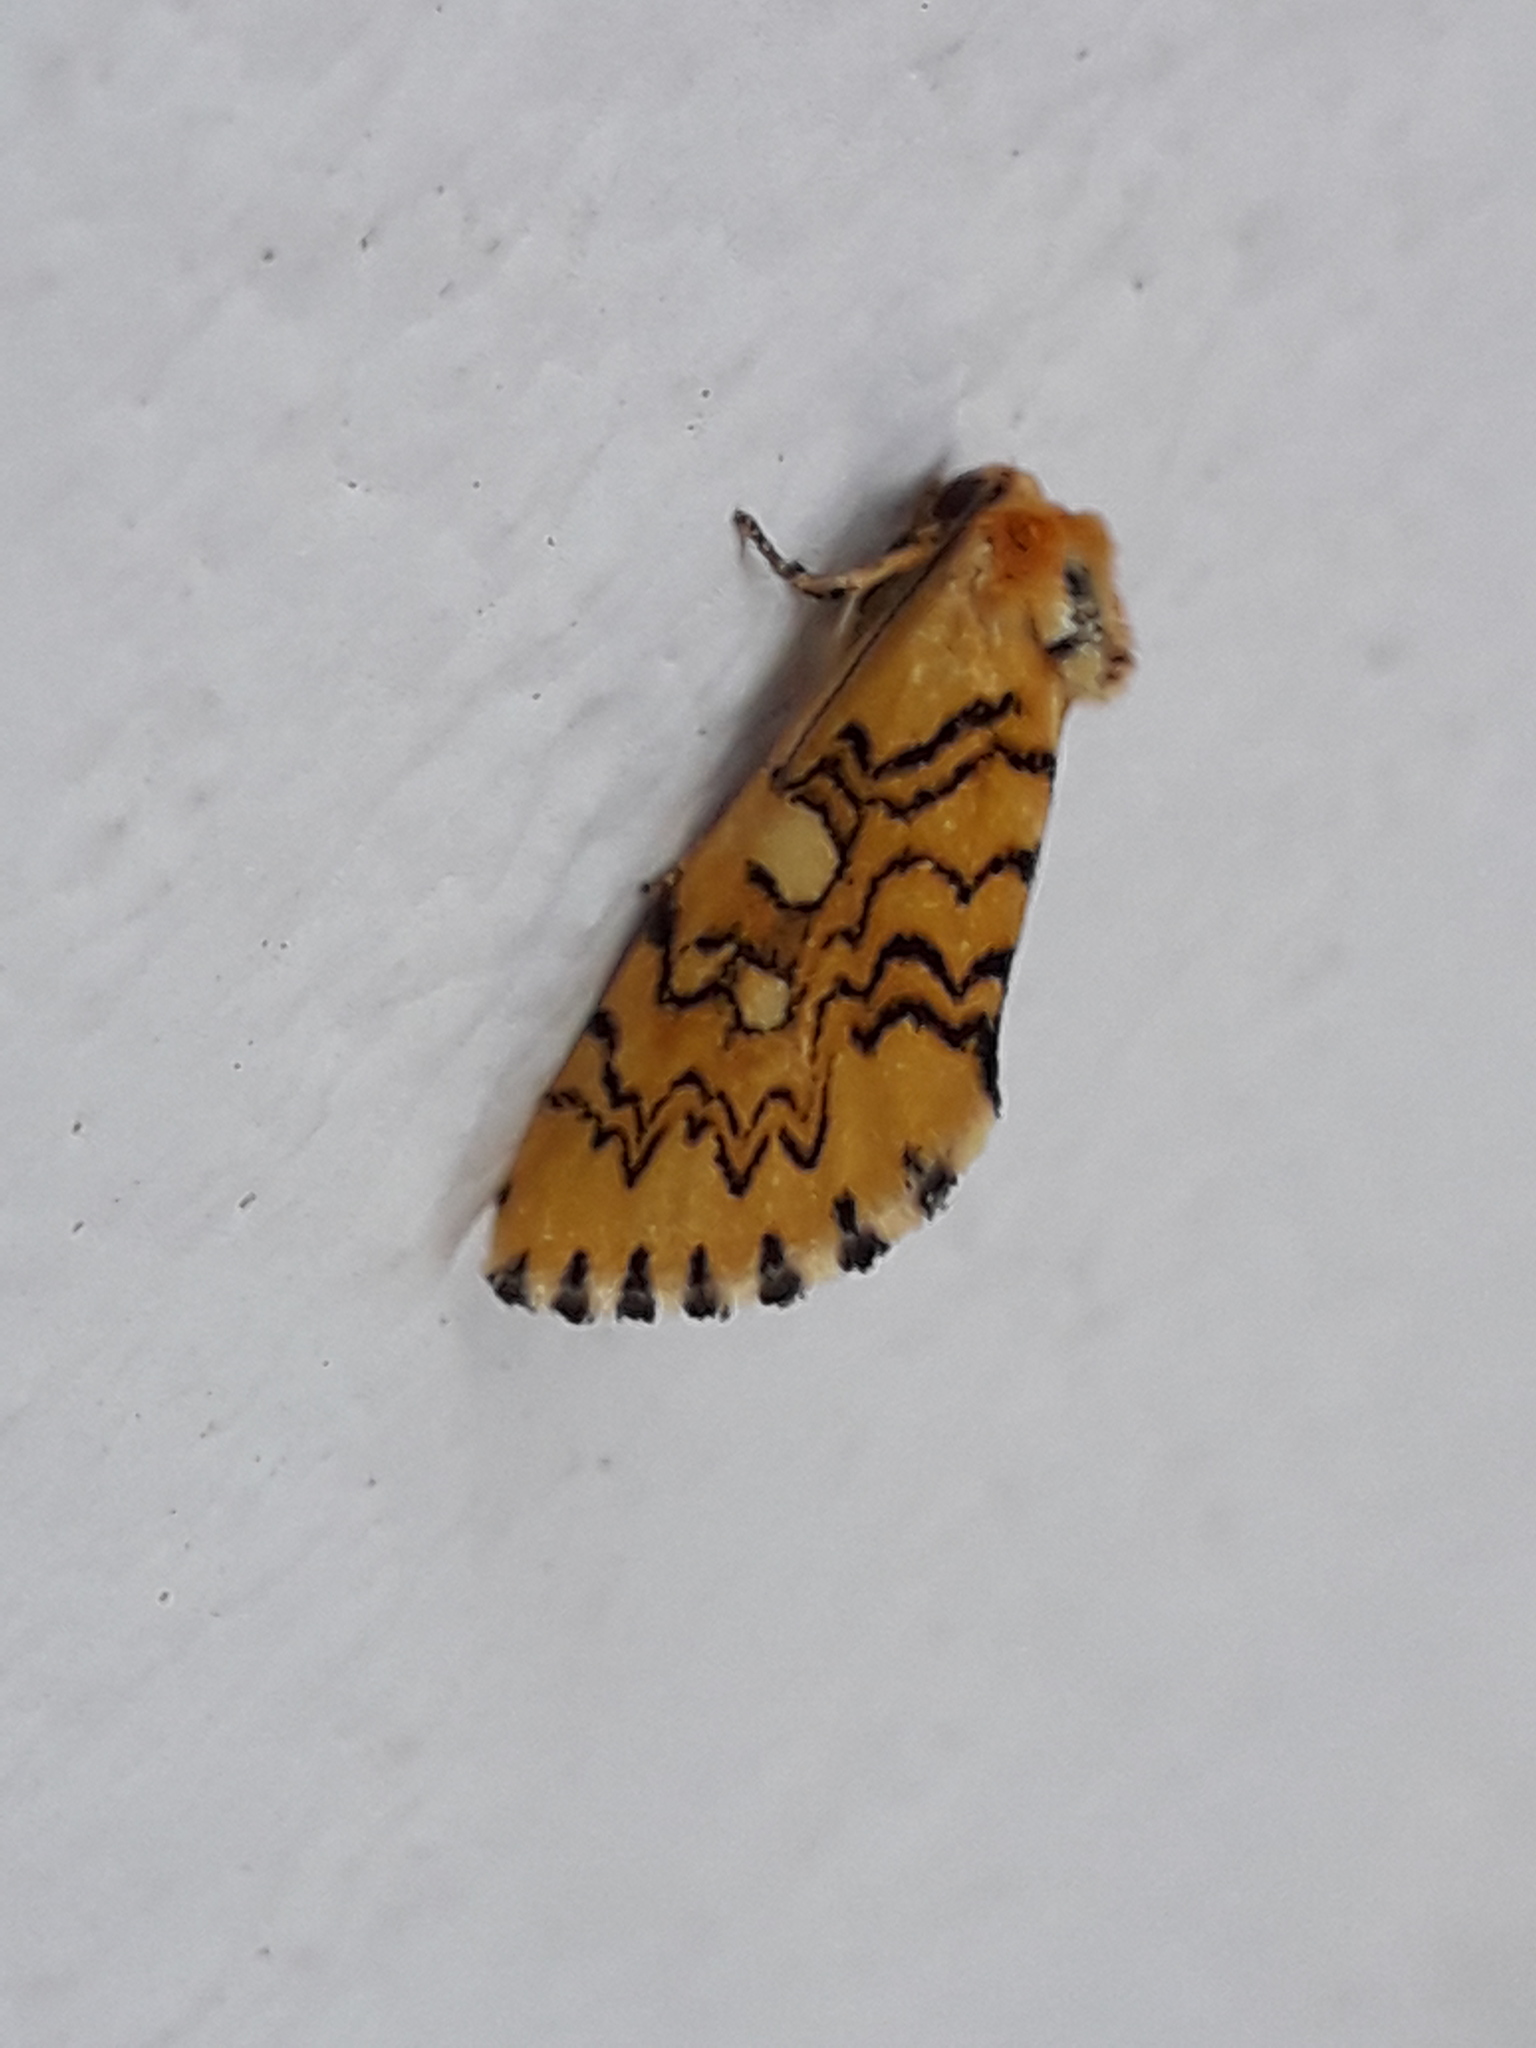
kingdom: Animalia
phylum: Arthropoda
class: Insecta
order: Lepidoptera
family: Noctuidae
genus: Chrysoecia
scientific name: Chrysoecia
